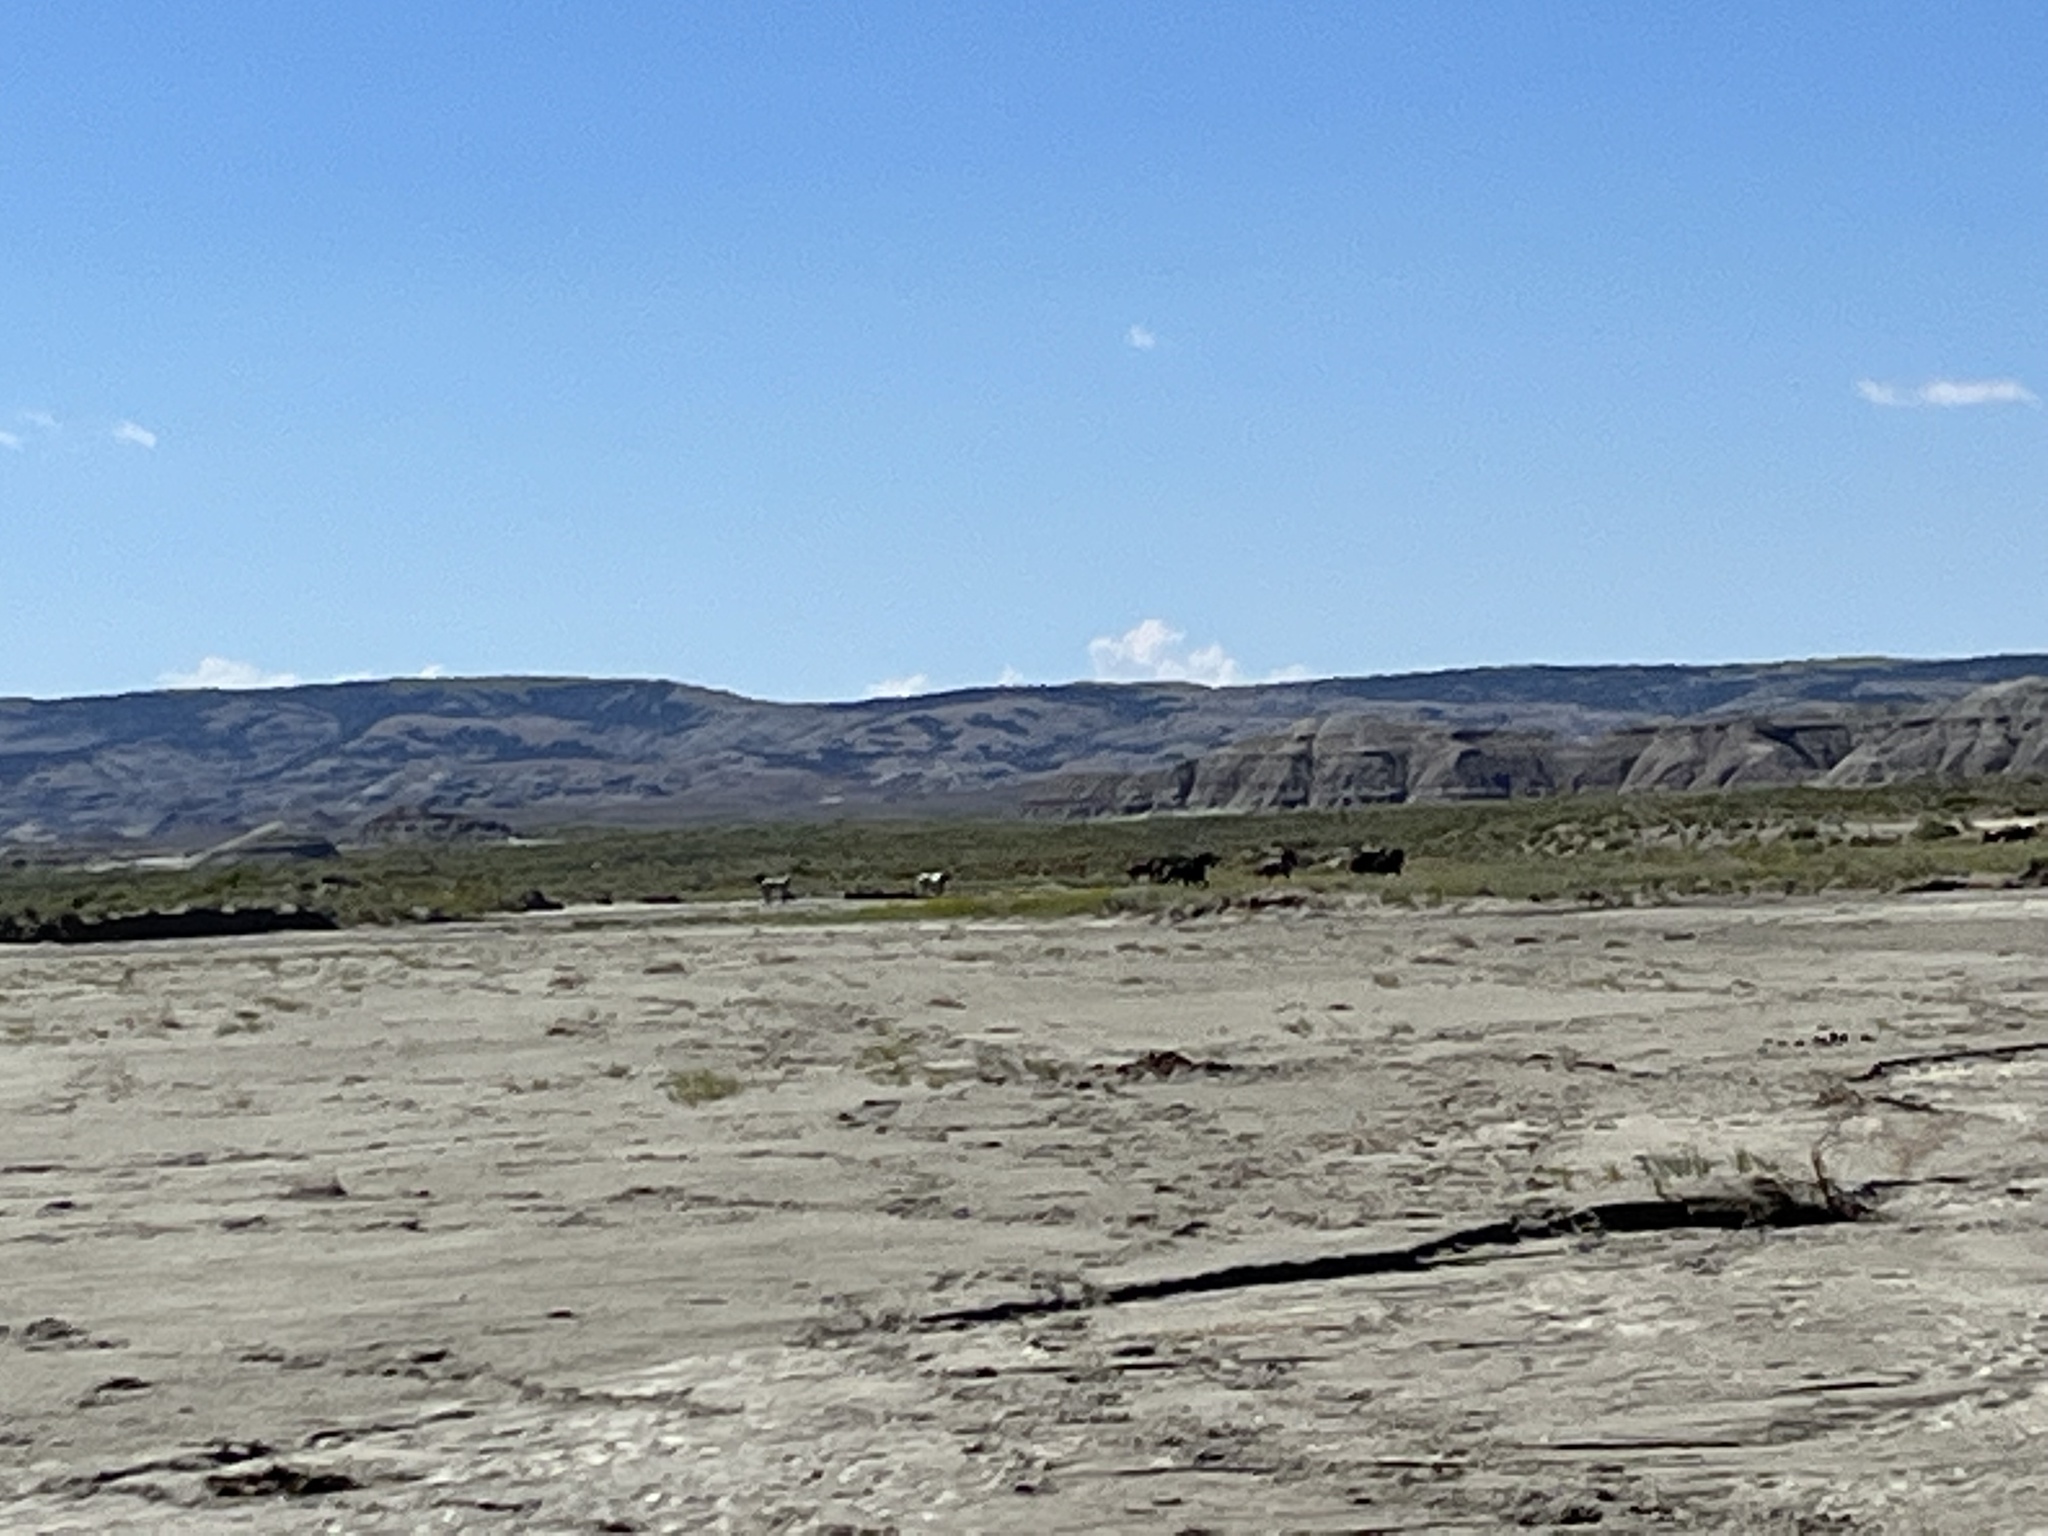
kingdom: Animalia
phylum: Chordata
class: Mammalia
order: Perissodactyla
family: Equidae
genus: Equus
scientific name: Equus caballus
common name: Horse
